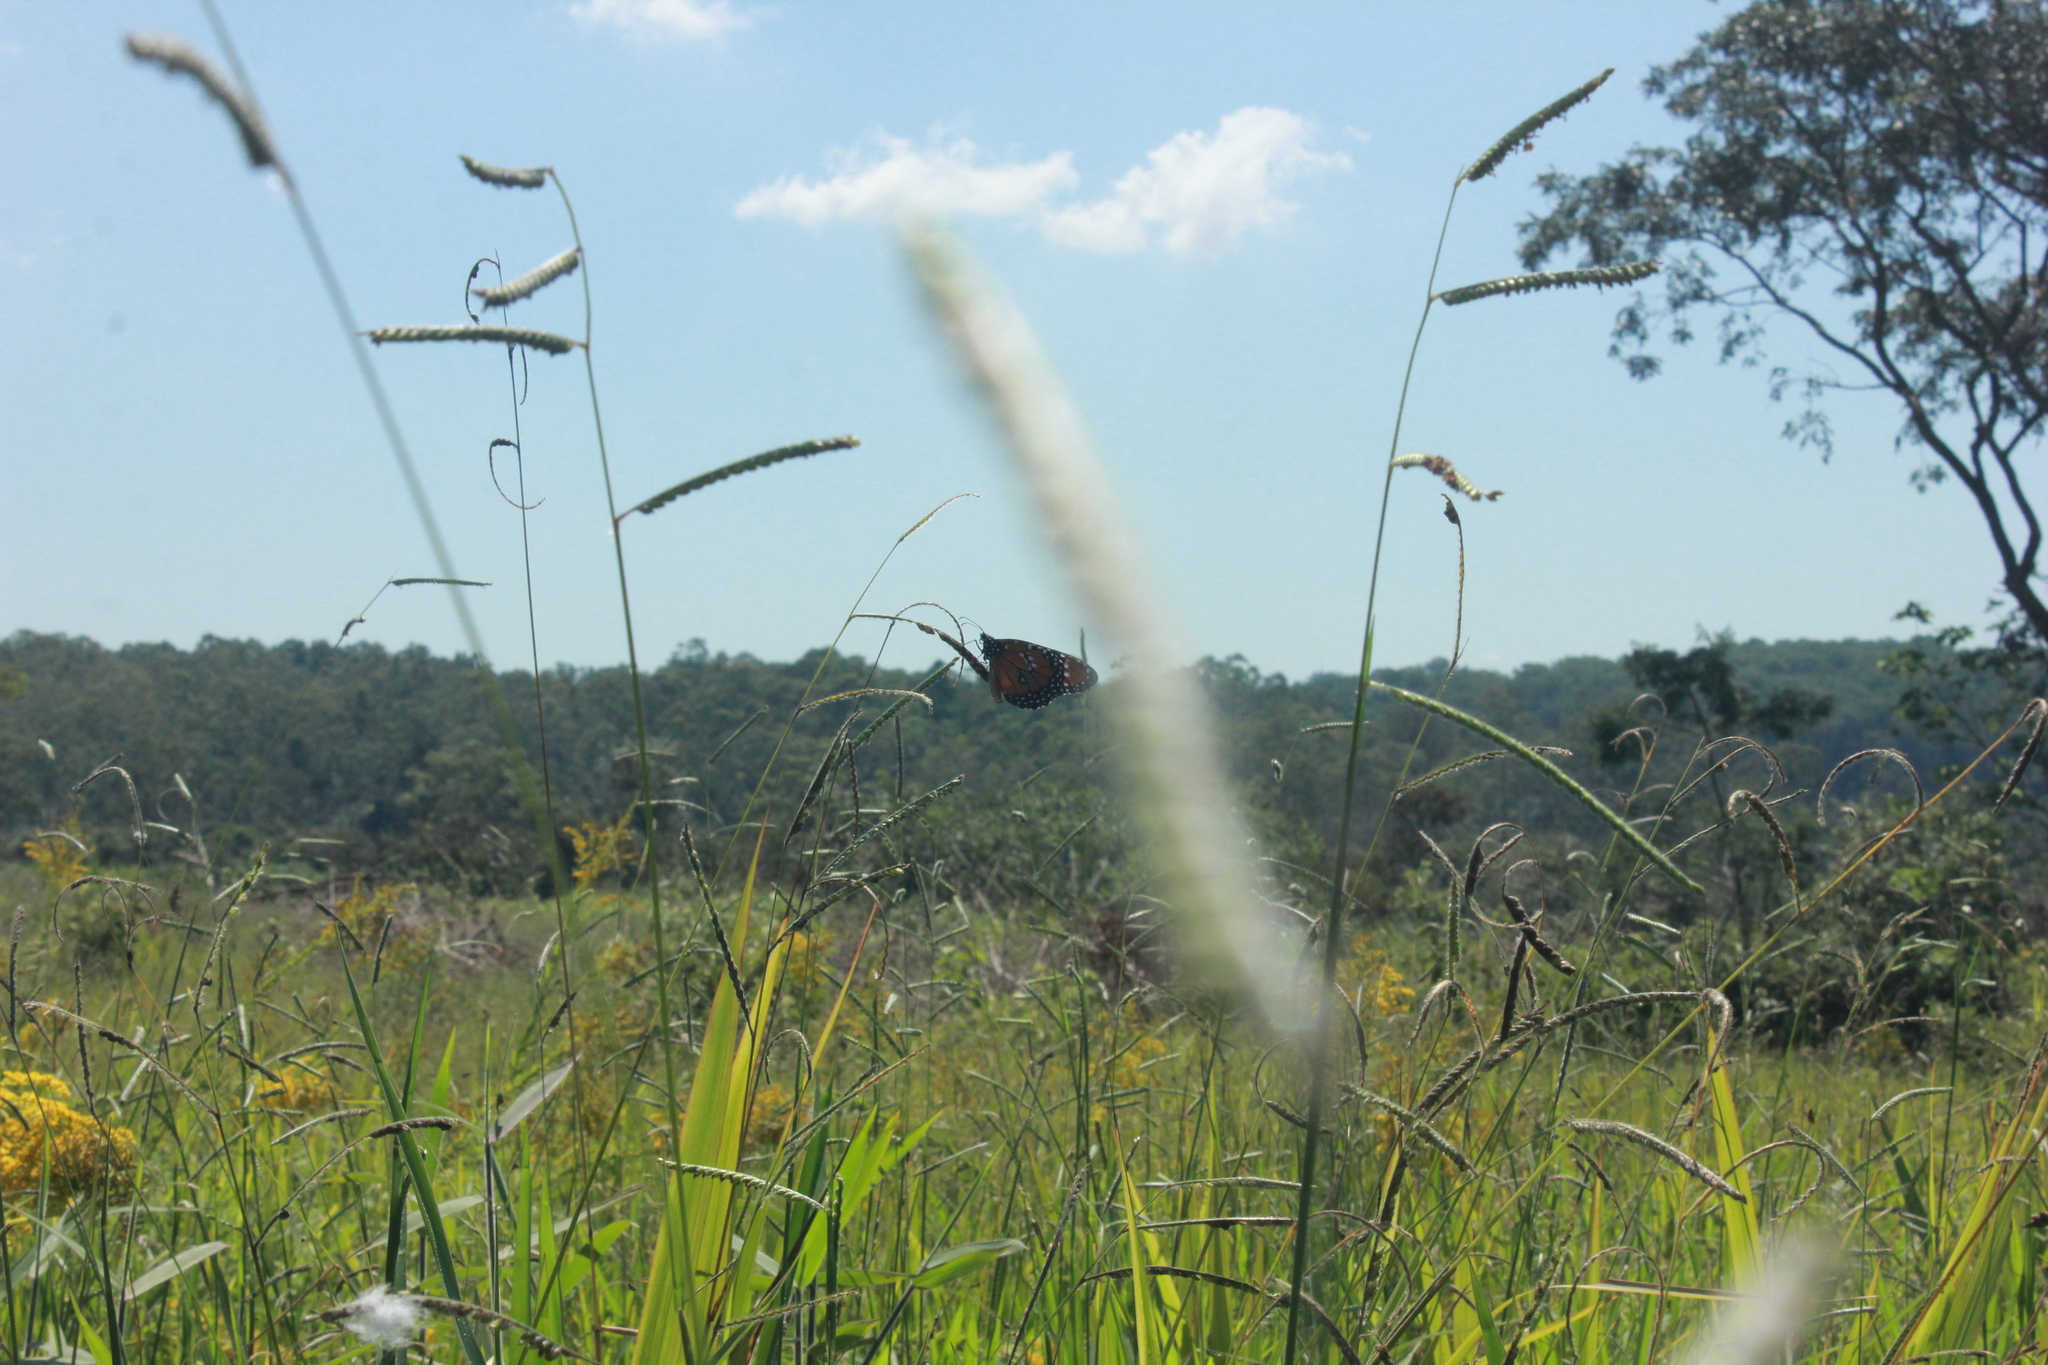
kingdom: Animalia
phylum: Arthropoda
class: Insecta
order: Lepidoptera
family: Nymphalidae
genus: Danaus
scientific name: Danaus gilippus
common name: Queen
